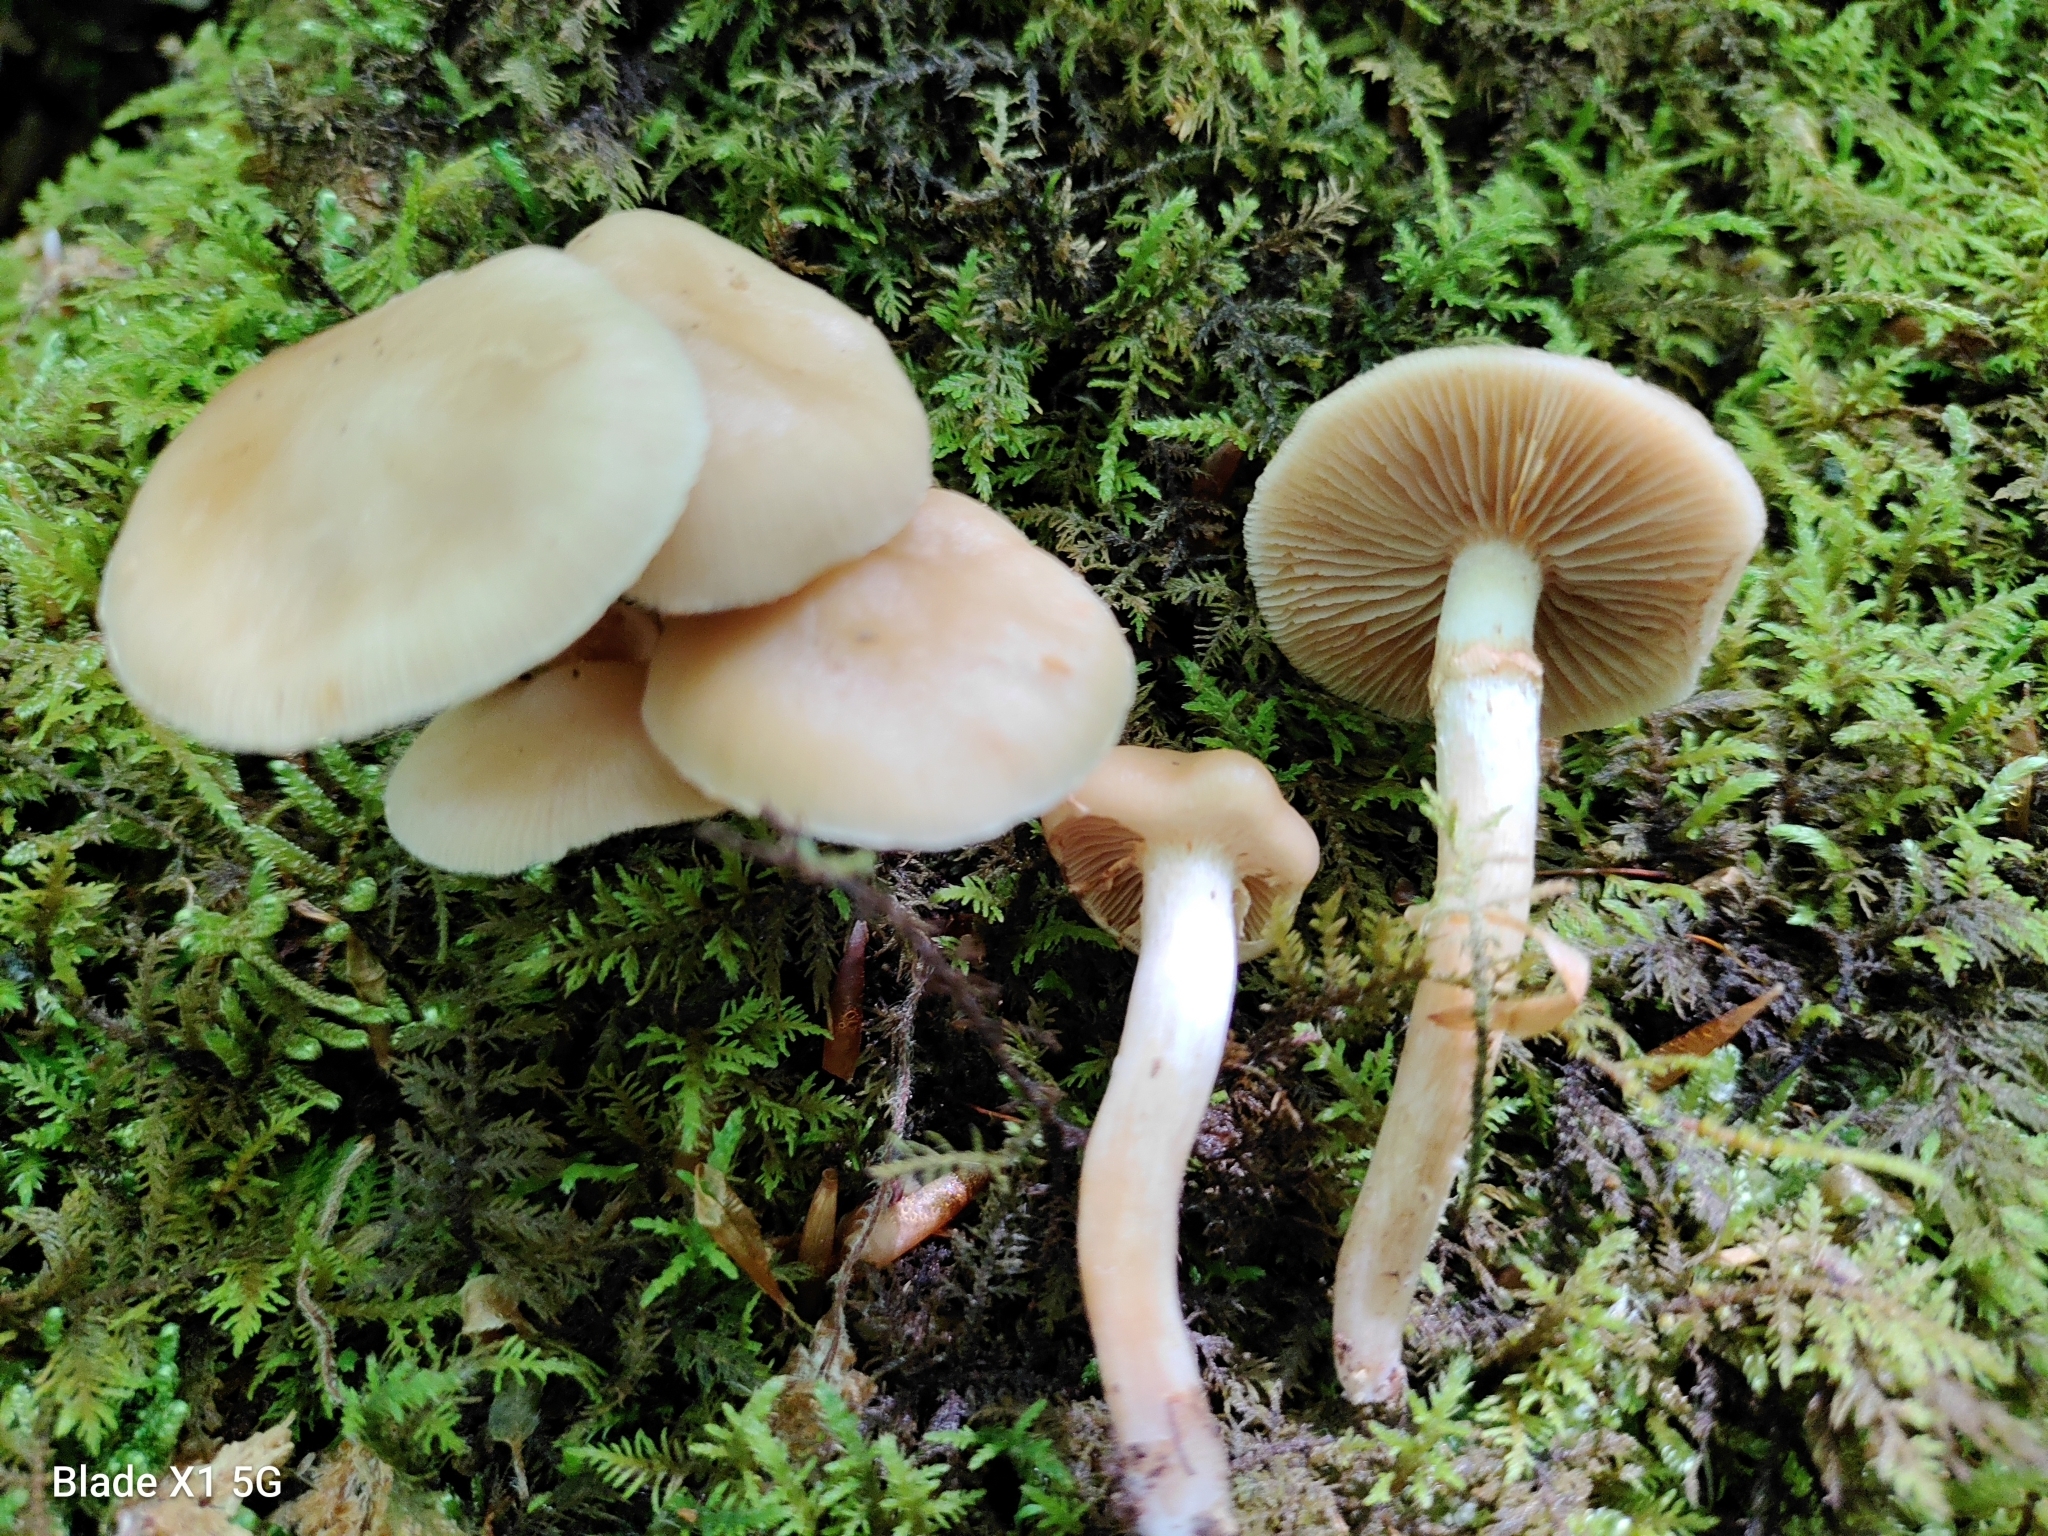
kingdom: Fungi
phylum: Basidiomycota
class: Agaricomycetes
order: Agaricales
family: Strophariaceae
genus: Kuehneromyces
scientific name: Kuehneromyces marginellus
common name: Sheathed woodtuft
